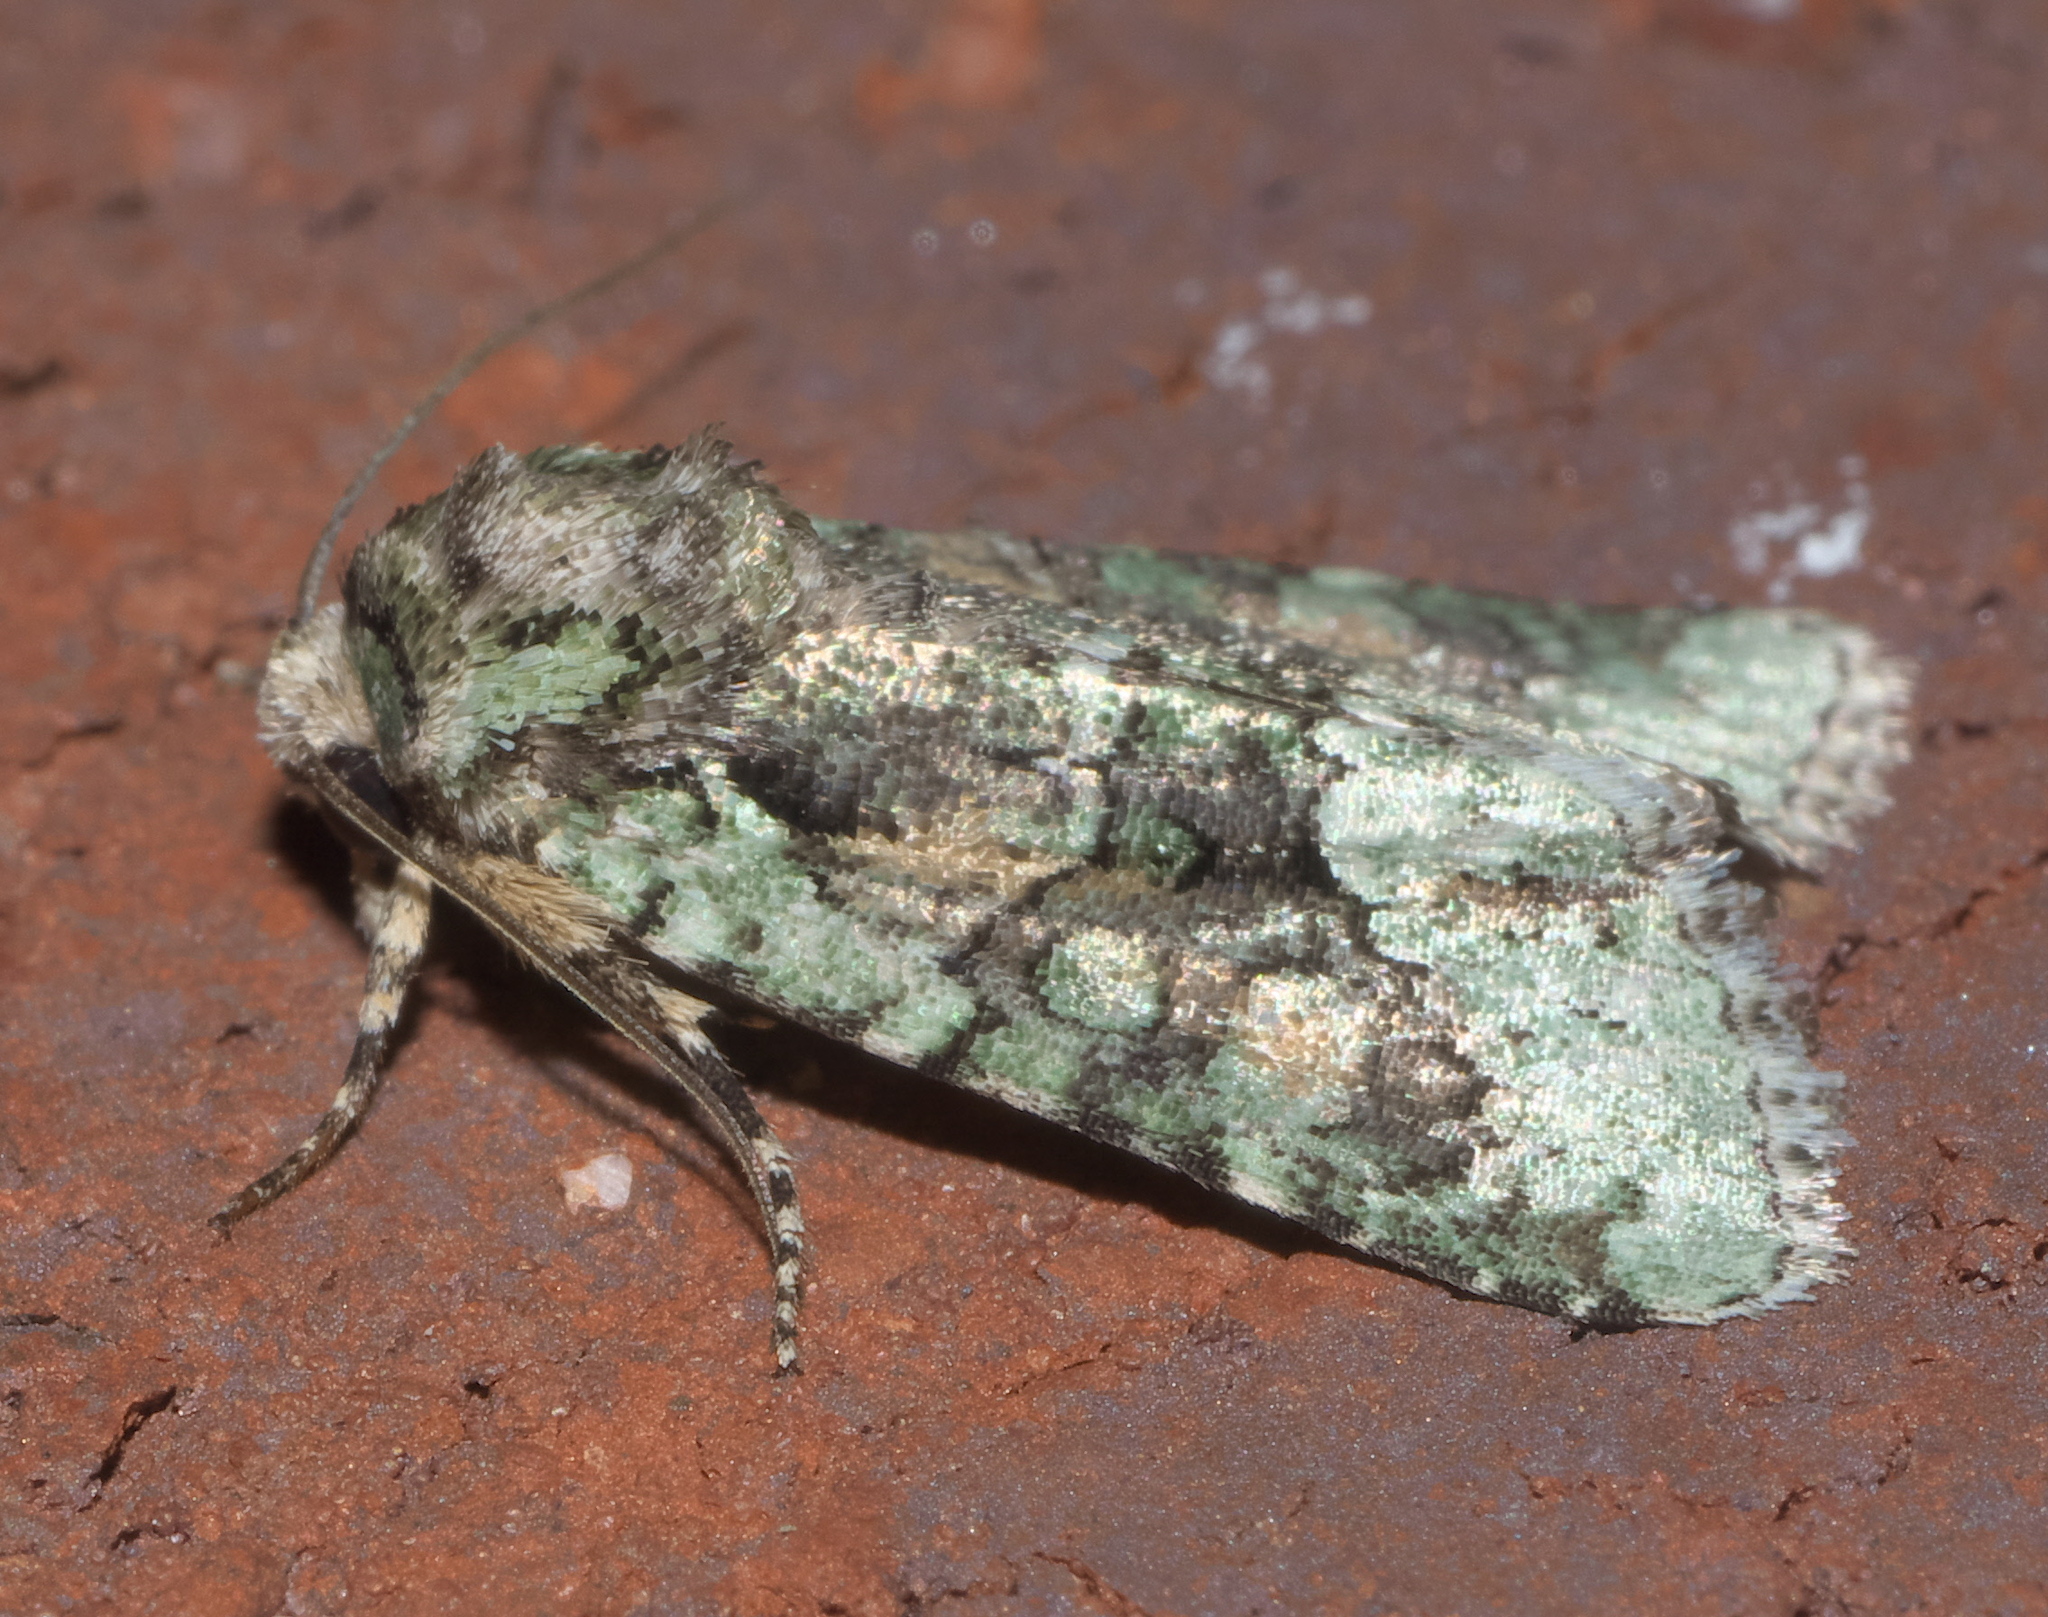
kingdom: Animalia
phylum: Arthropoda
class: Insecta
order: Lepidoptera
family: Noctuidae
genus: Lacinipolia
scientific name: Lacinipolia explicata
